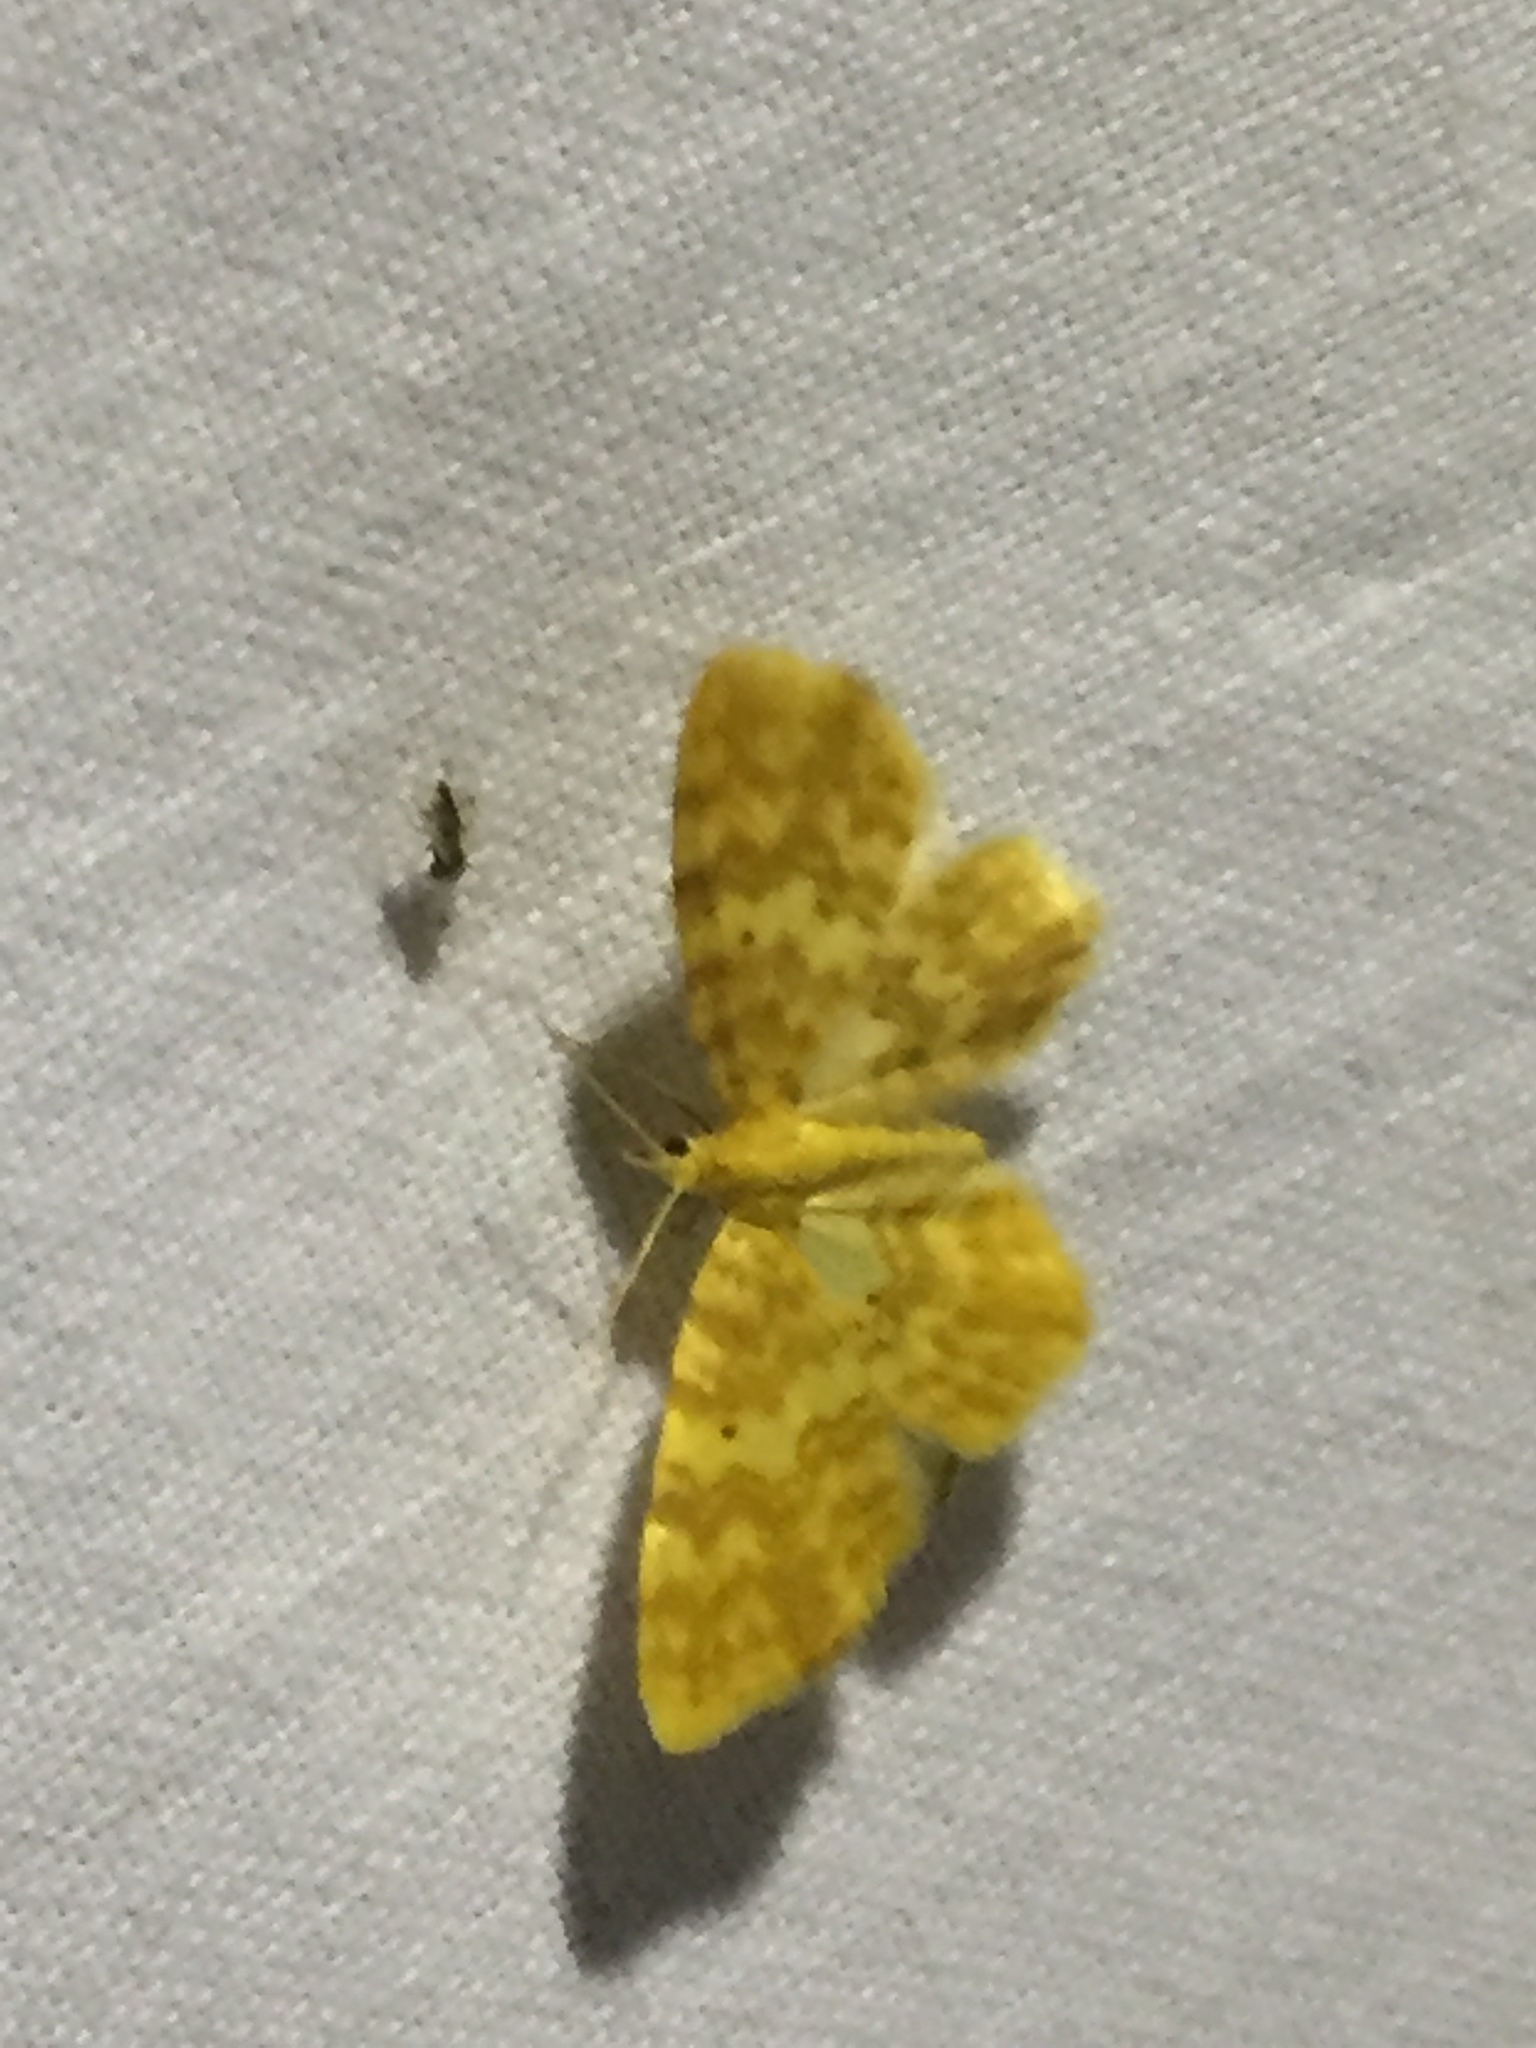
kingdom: Animalia
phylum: Arthropoda
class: Insecta
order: Lepidoptera
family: Geometridae
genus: Hydrelia
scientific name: Hydrelia flammeolaria
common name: Small yellow wave
